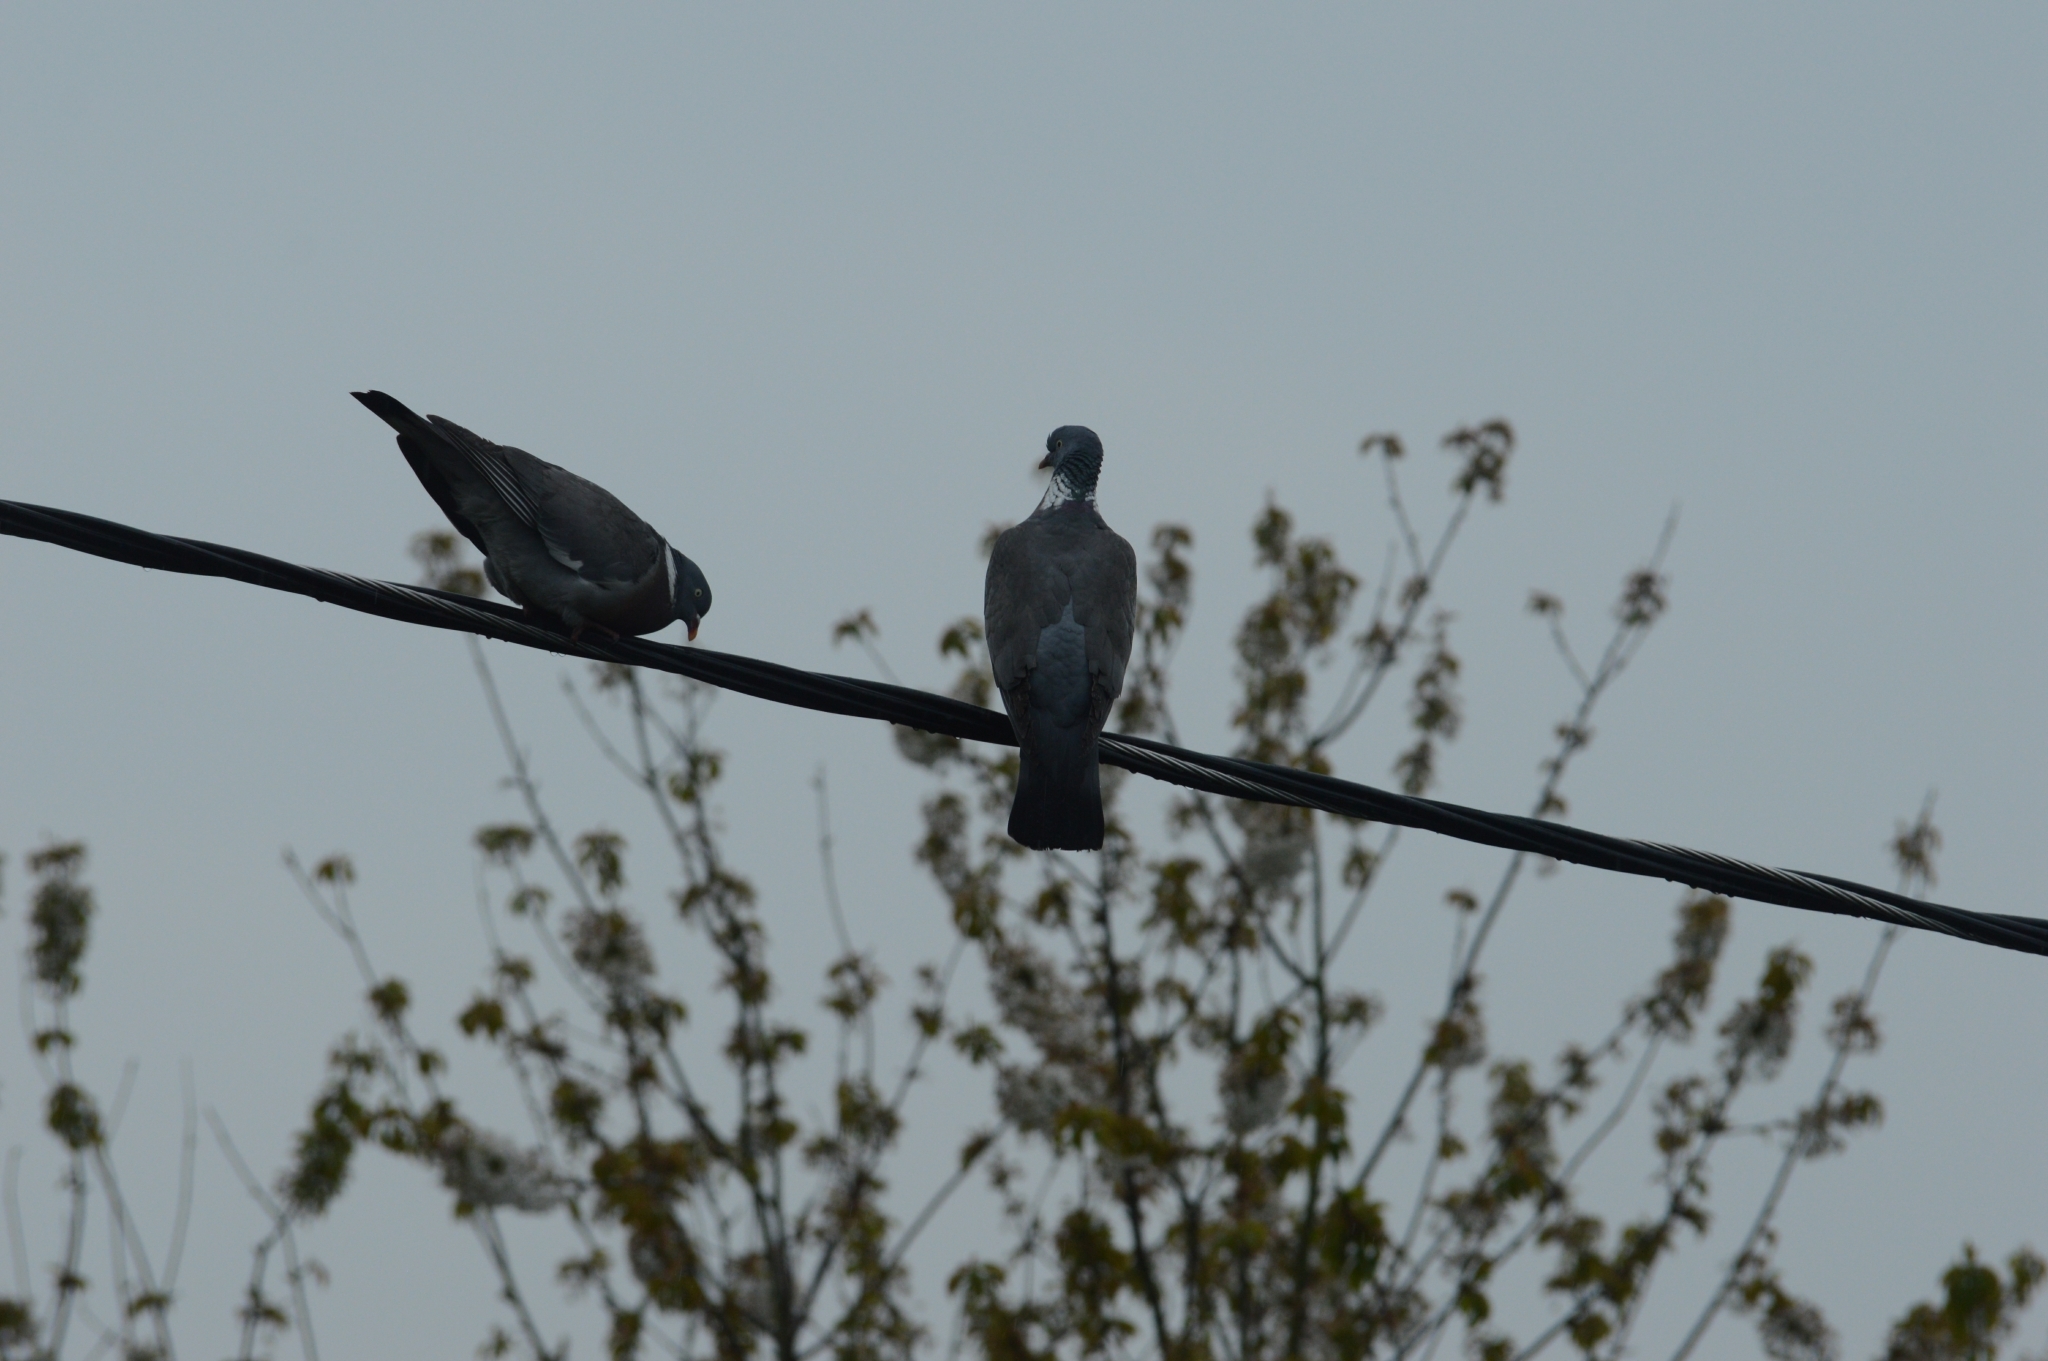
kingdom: Animalia
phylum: Chordata
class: Aves
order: Columbiformes
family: Columbidae
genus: Columba
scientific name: Columba palumbus
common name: Common wood pigeon
